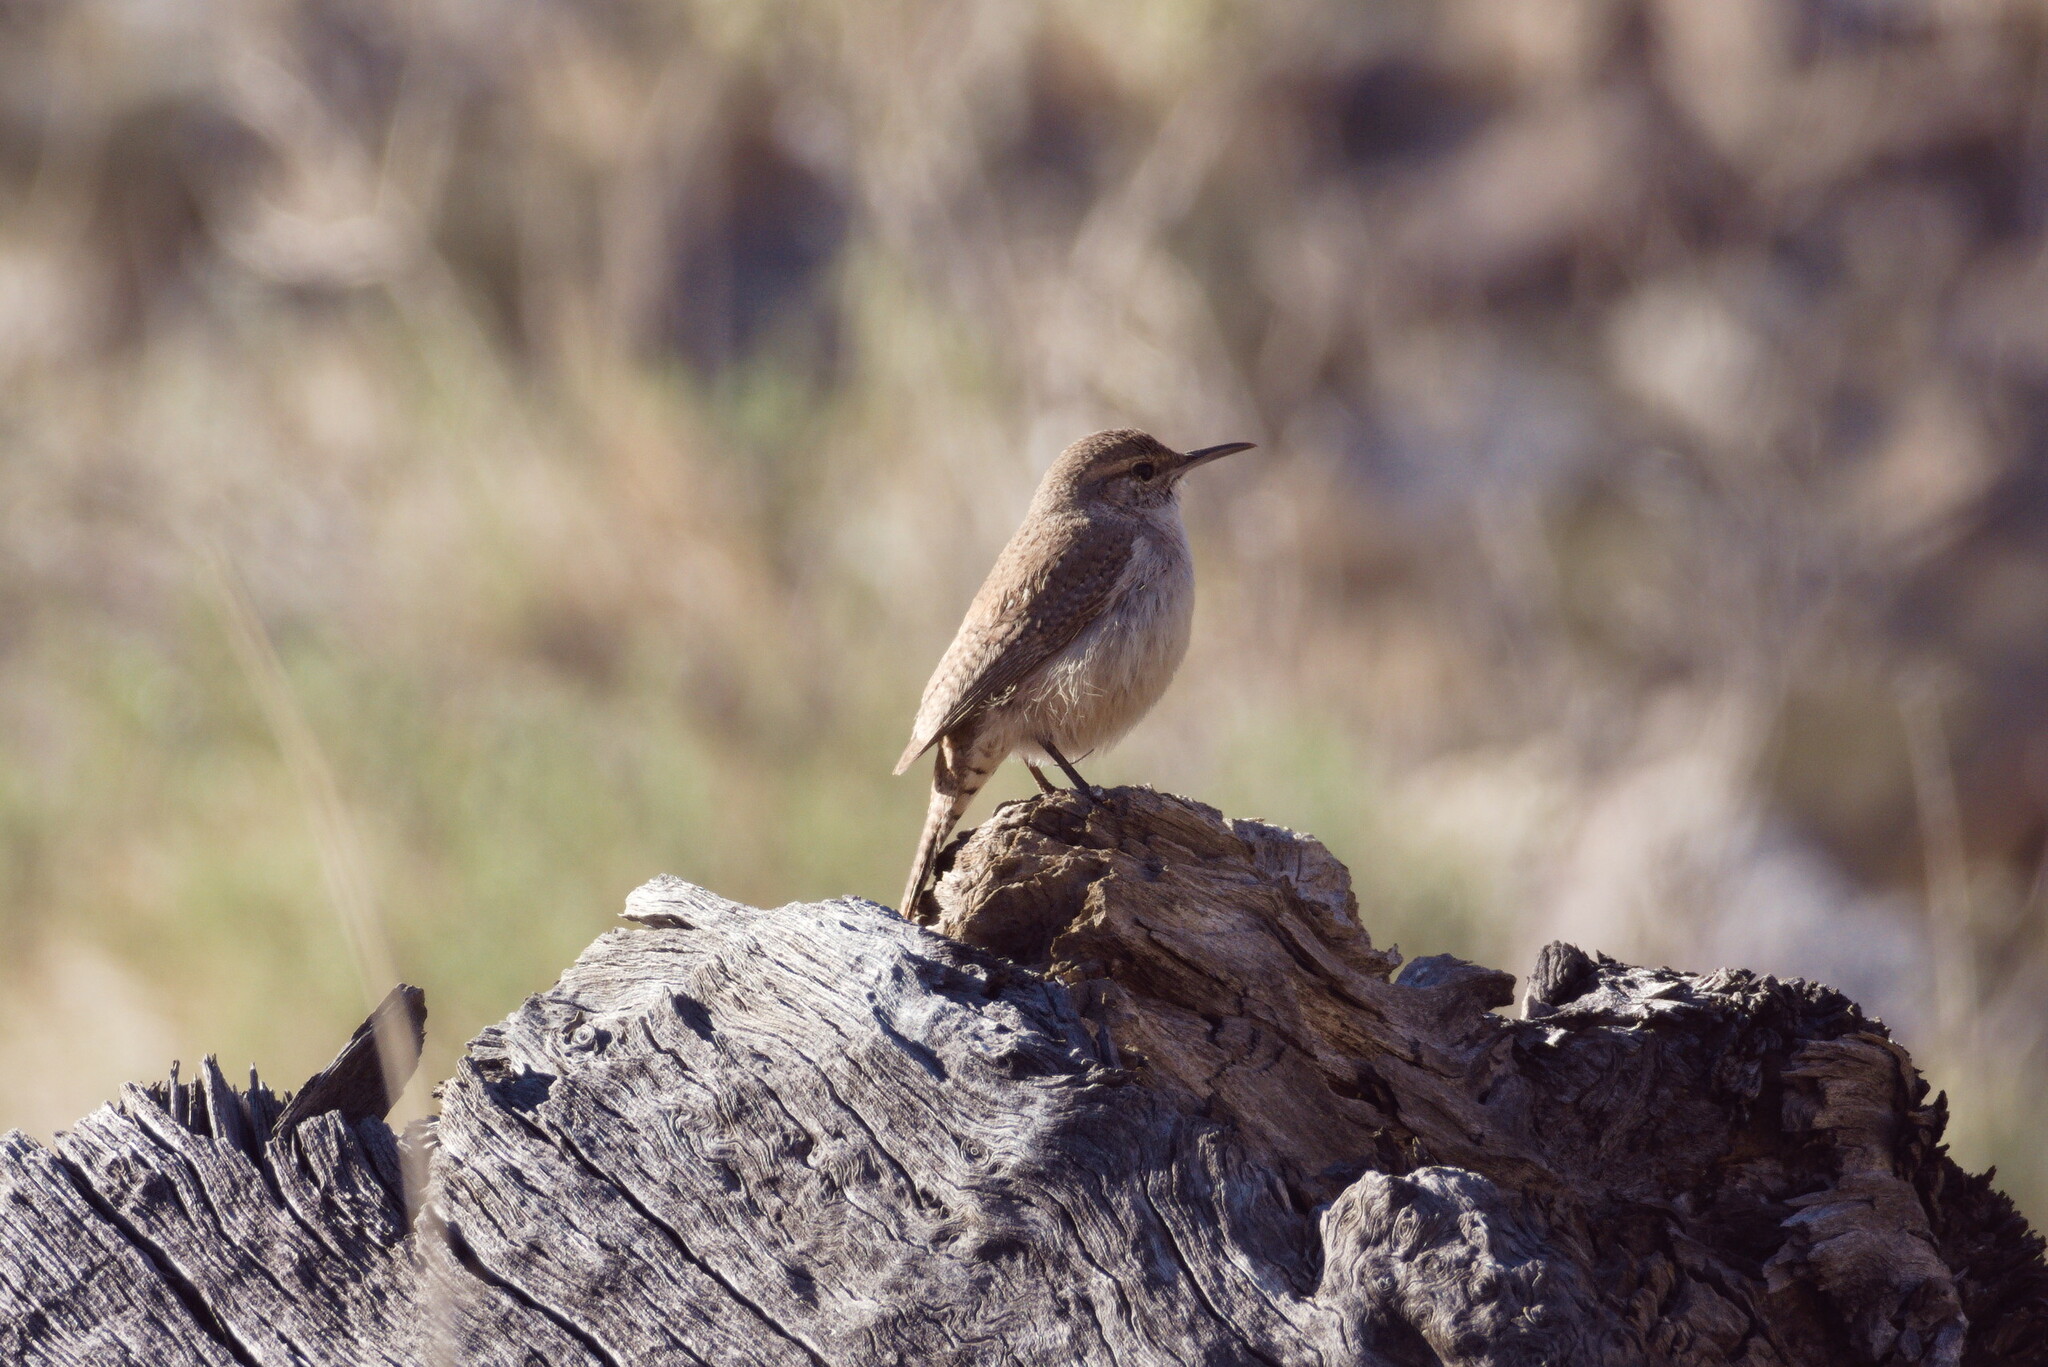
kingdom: Animalia
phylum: Chordata
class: Aves
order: Passeriformes
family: Troglodytidae
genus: Salpinctes
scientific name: Salpinctes obsoletus
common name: Rock wren
